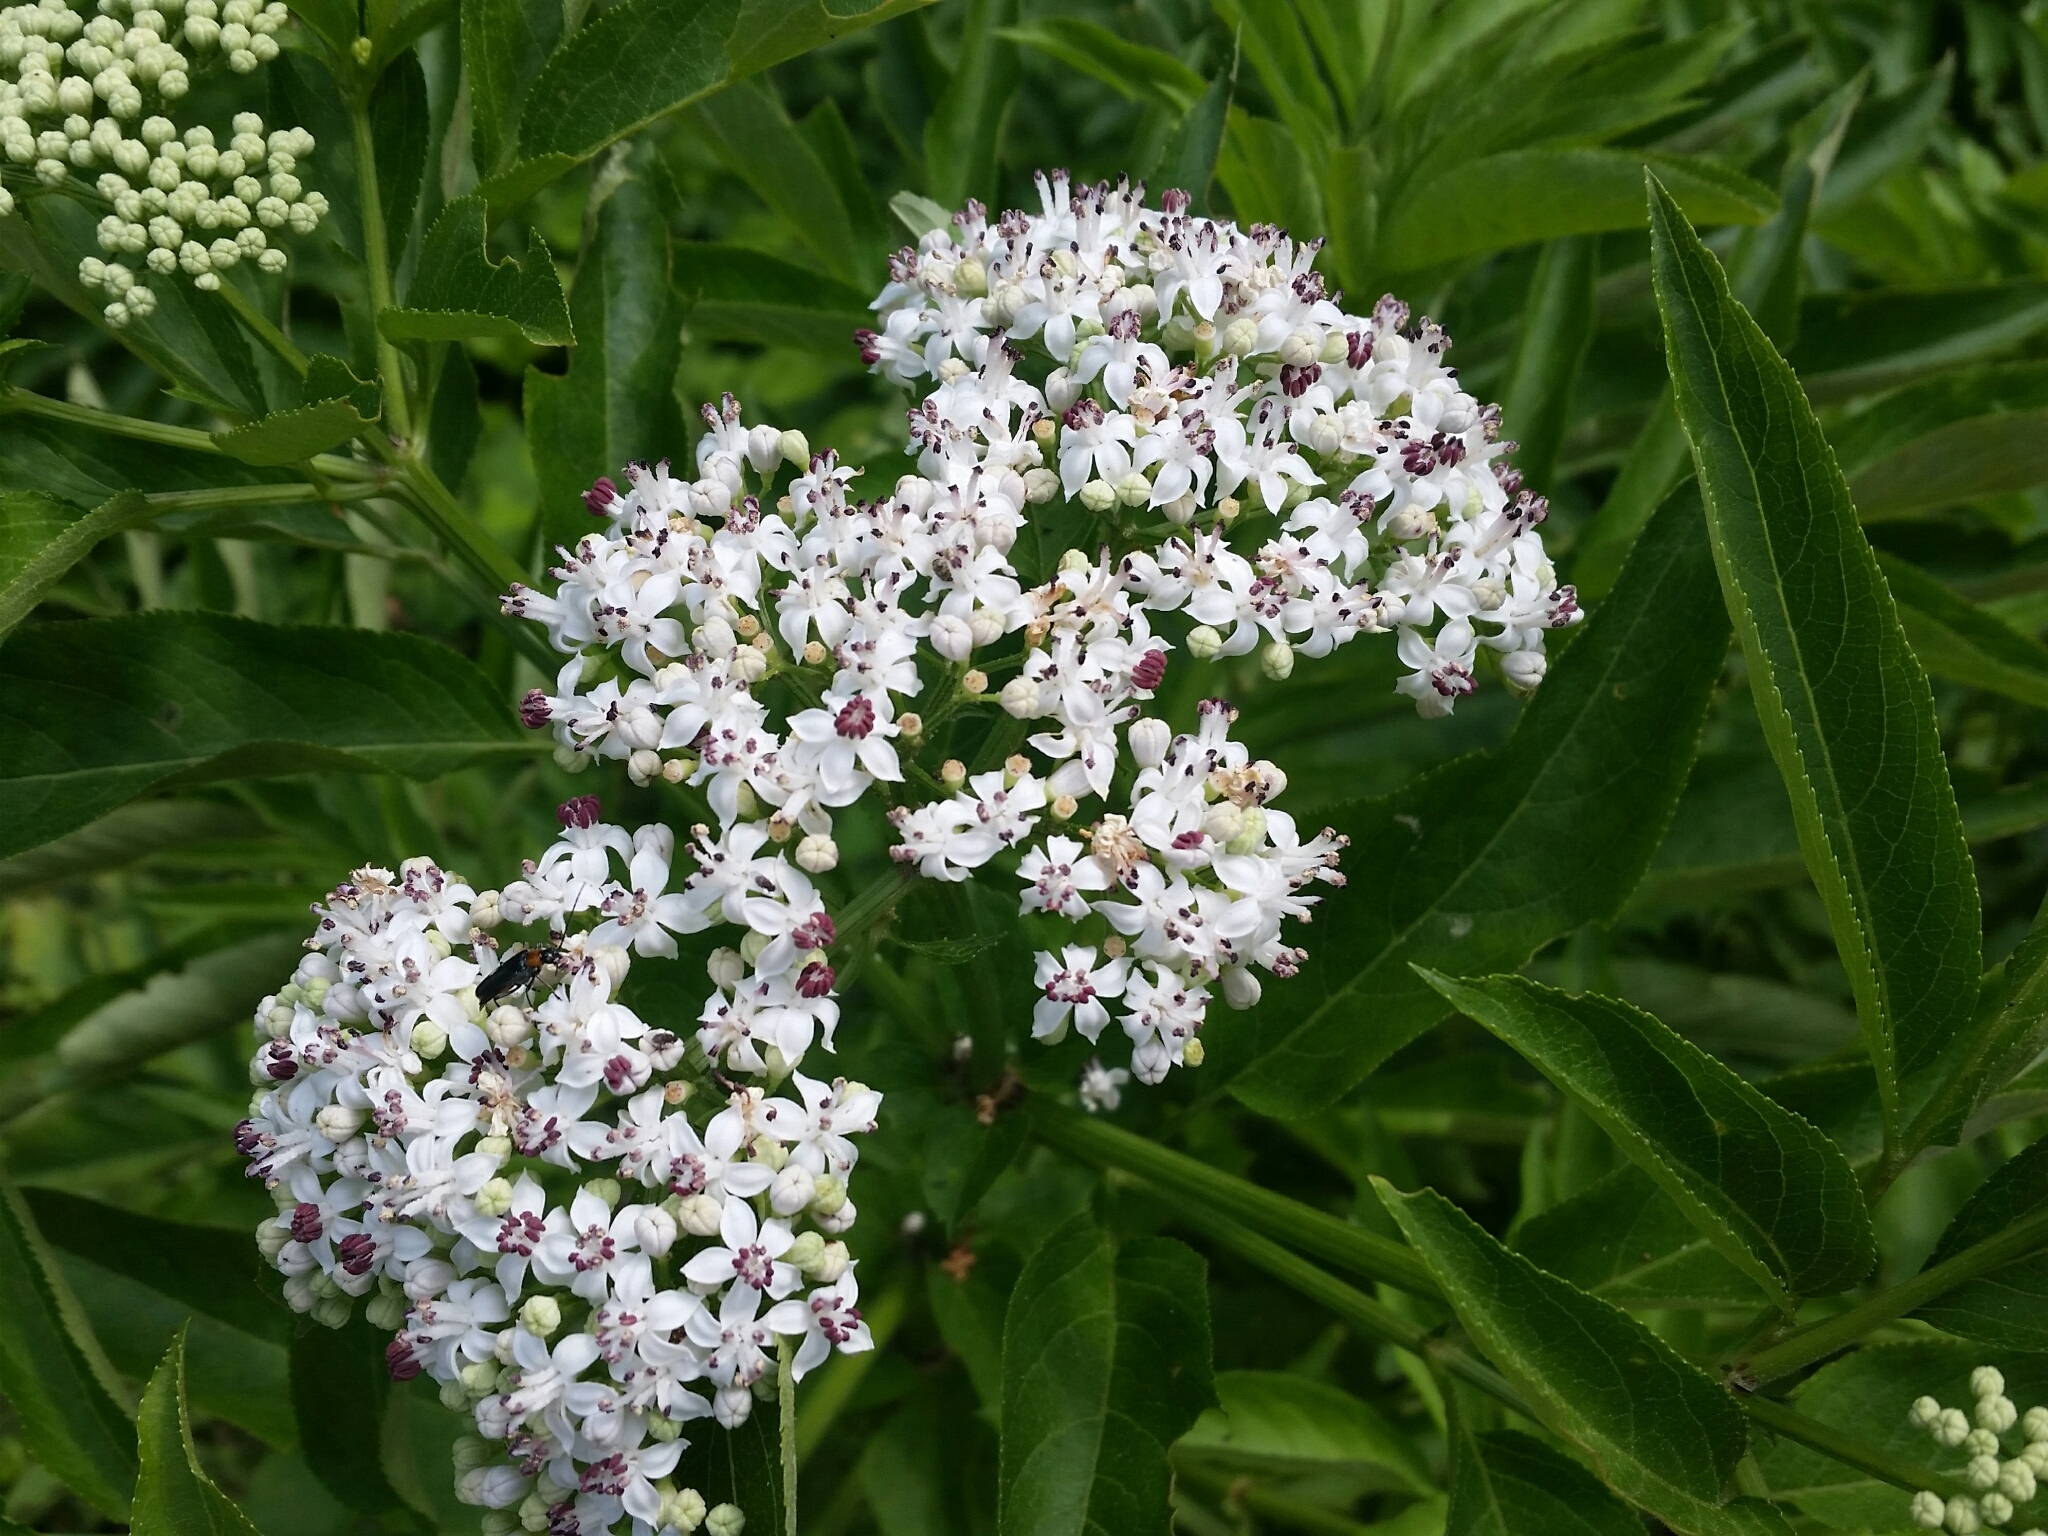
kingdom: Plantae
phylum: Tracheophyta
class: Magnoliopsida
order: Dipsacales
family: Viburnaceae
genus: Sambucus
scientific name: Sambucus ebulus
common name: Dwarf elder
